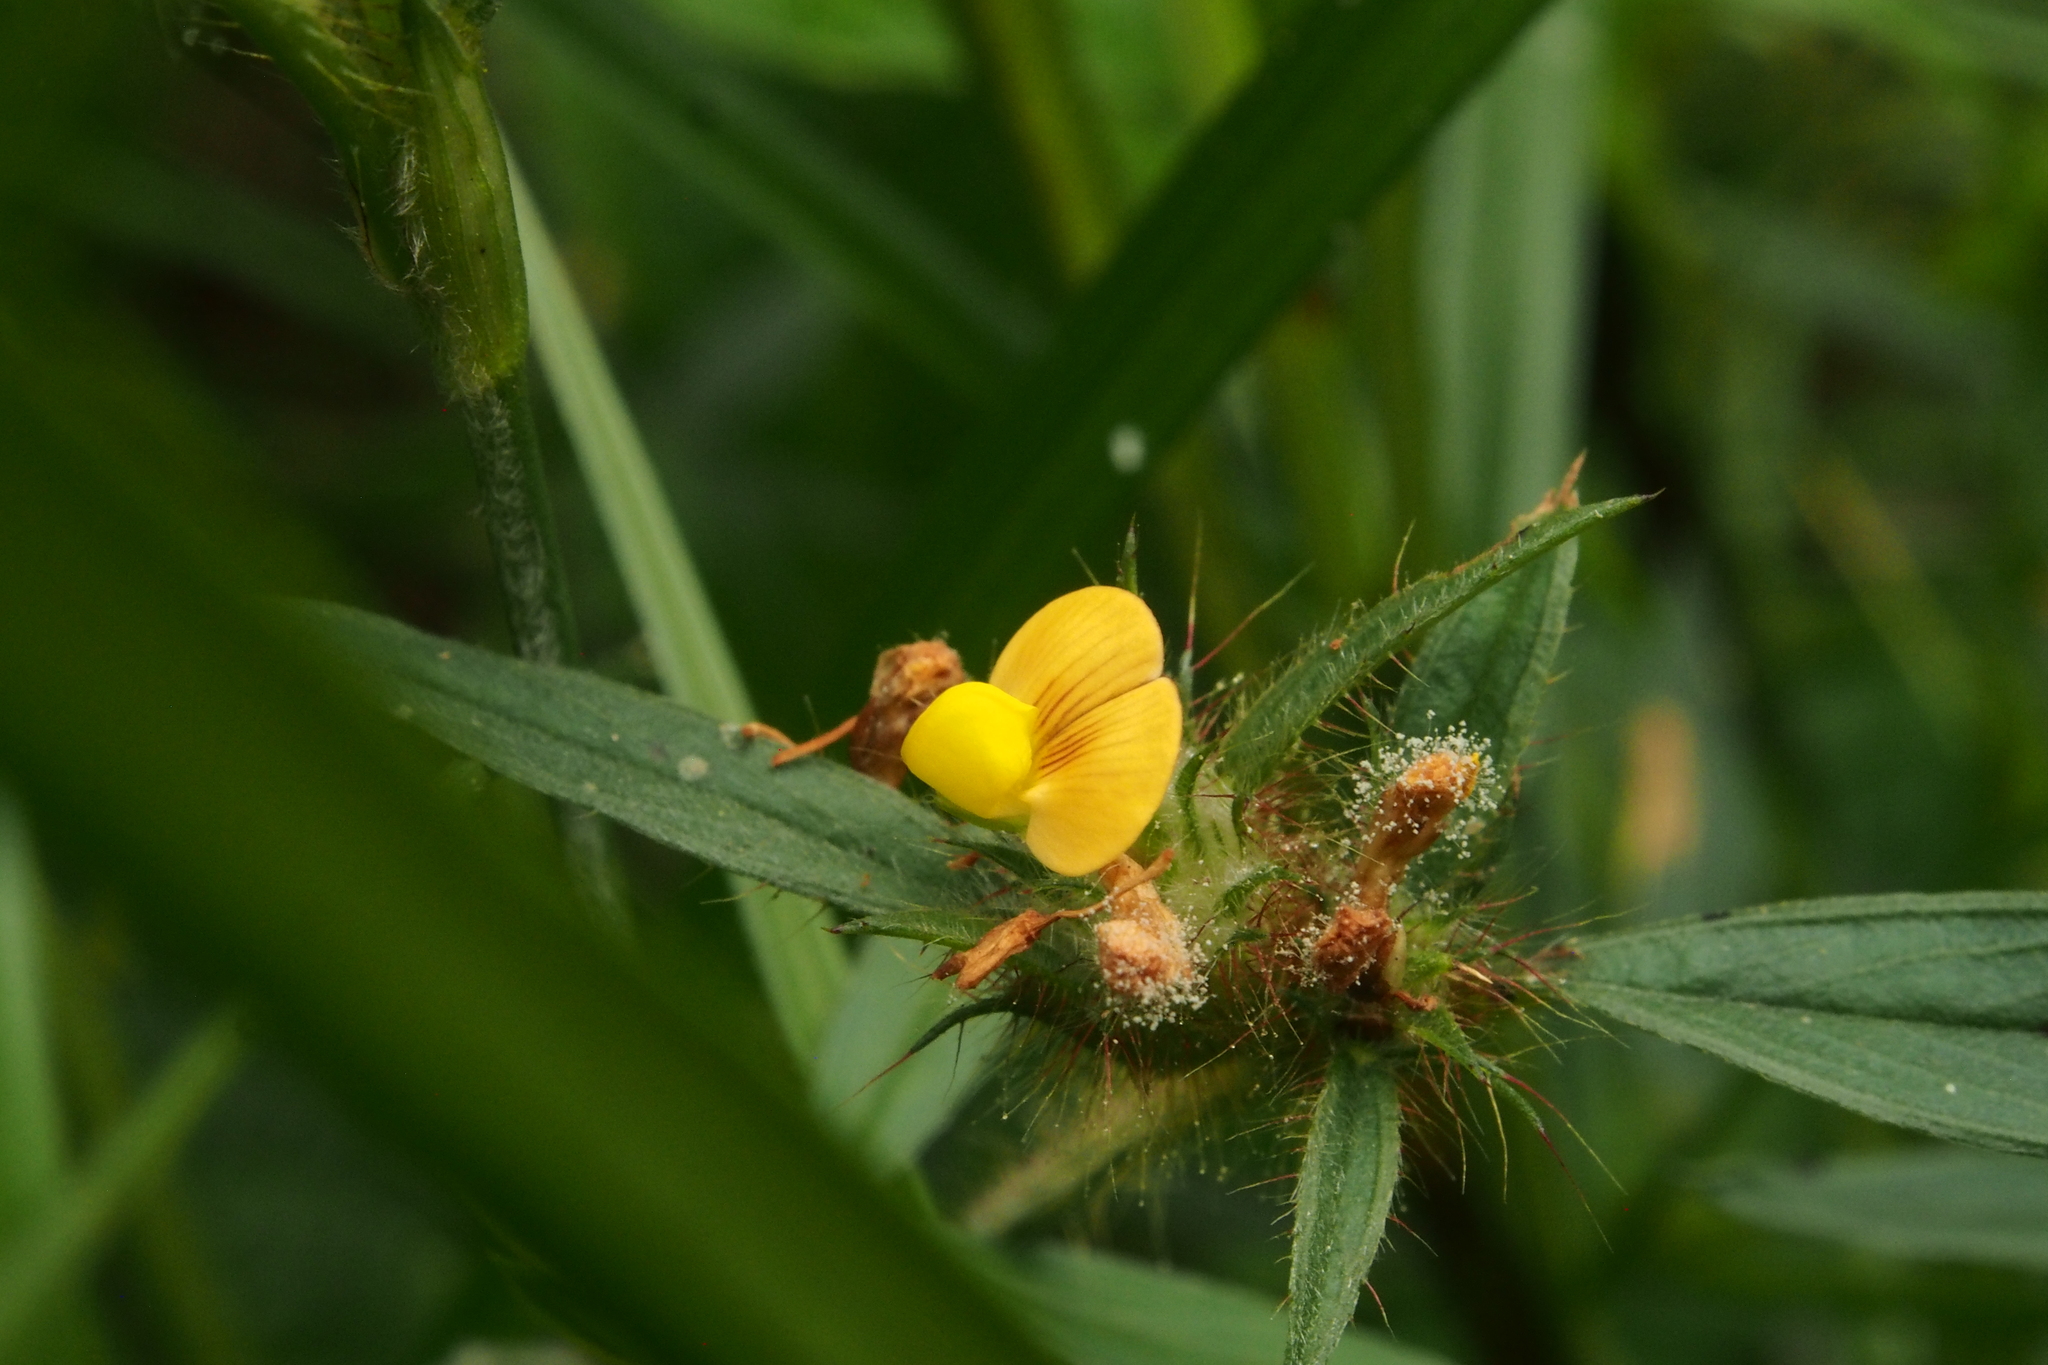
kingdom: Plantae
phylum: Tracheophyta
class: Magnoliopsida
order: Fabales
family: Fabaceae
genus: Stylosanthes
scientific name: Stylosanthes erecta
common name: Nigerian stylo
